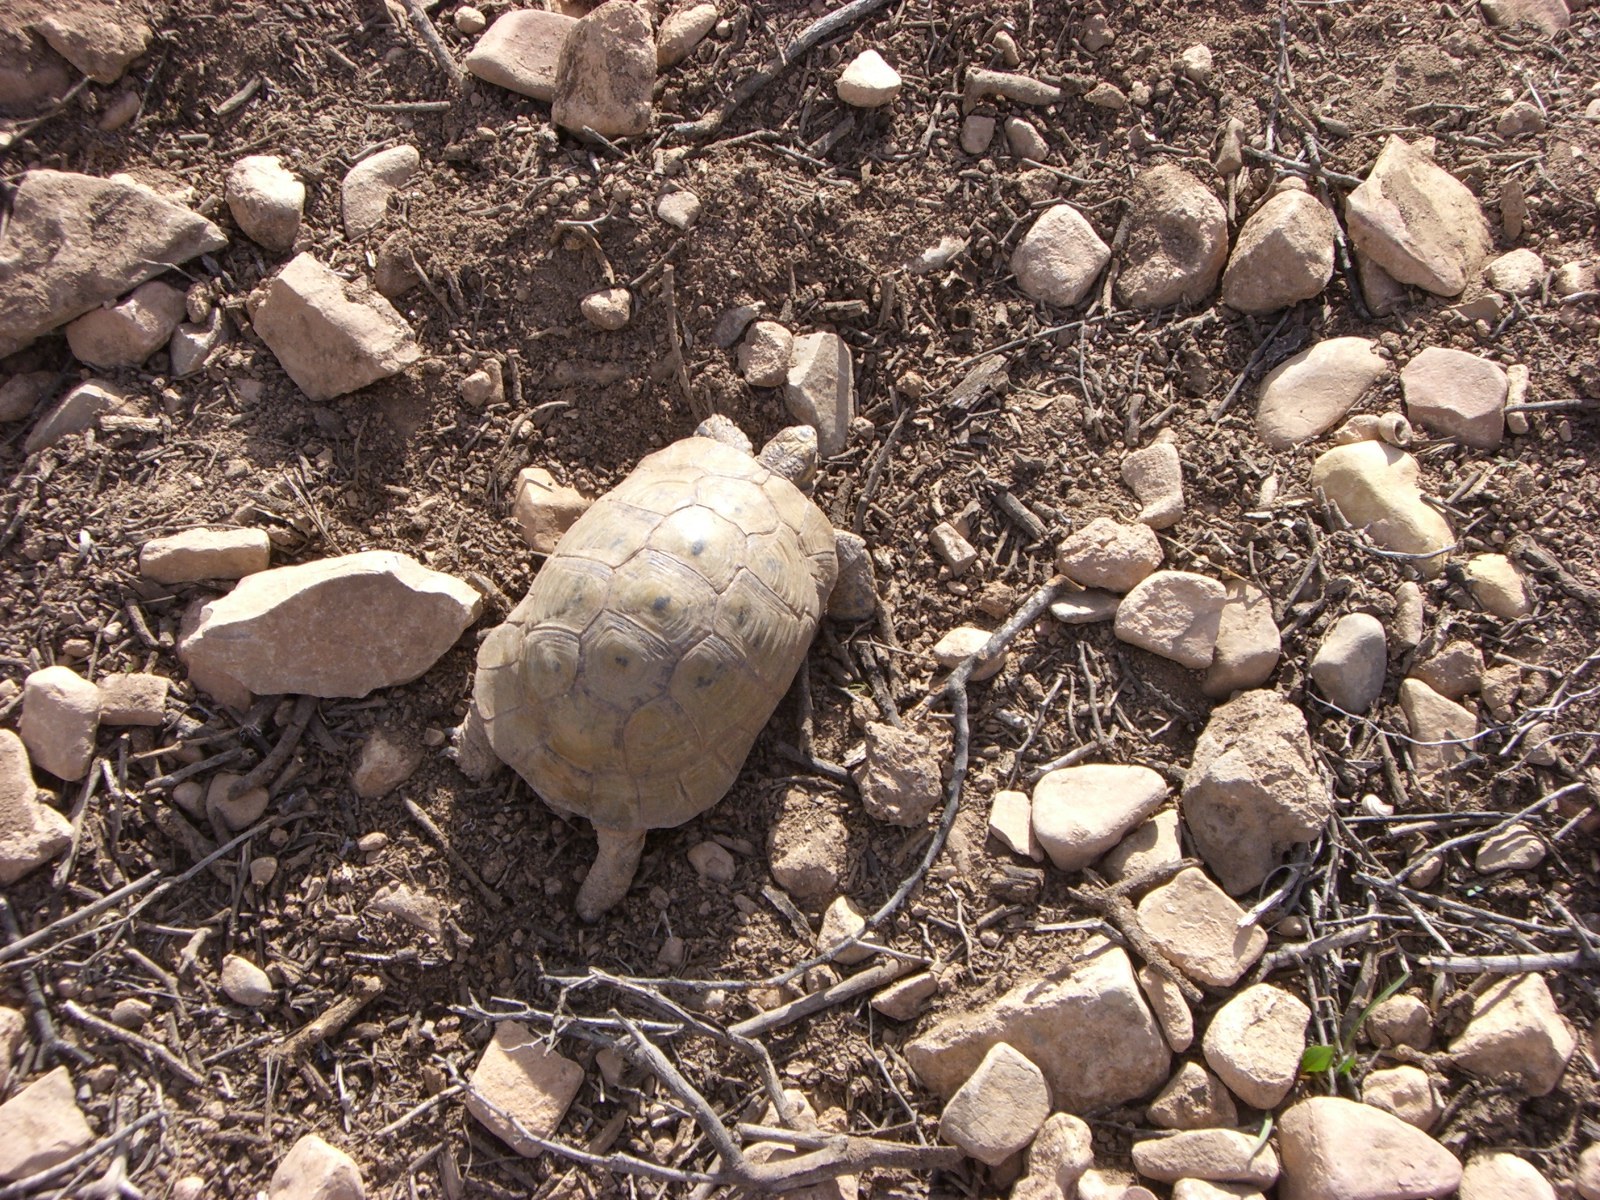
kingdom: Animalia
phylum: Chordata
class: Testudines
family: Testudinidae
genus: Testudo
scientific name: Testudo graeca
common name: Common tortoise
